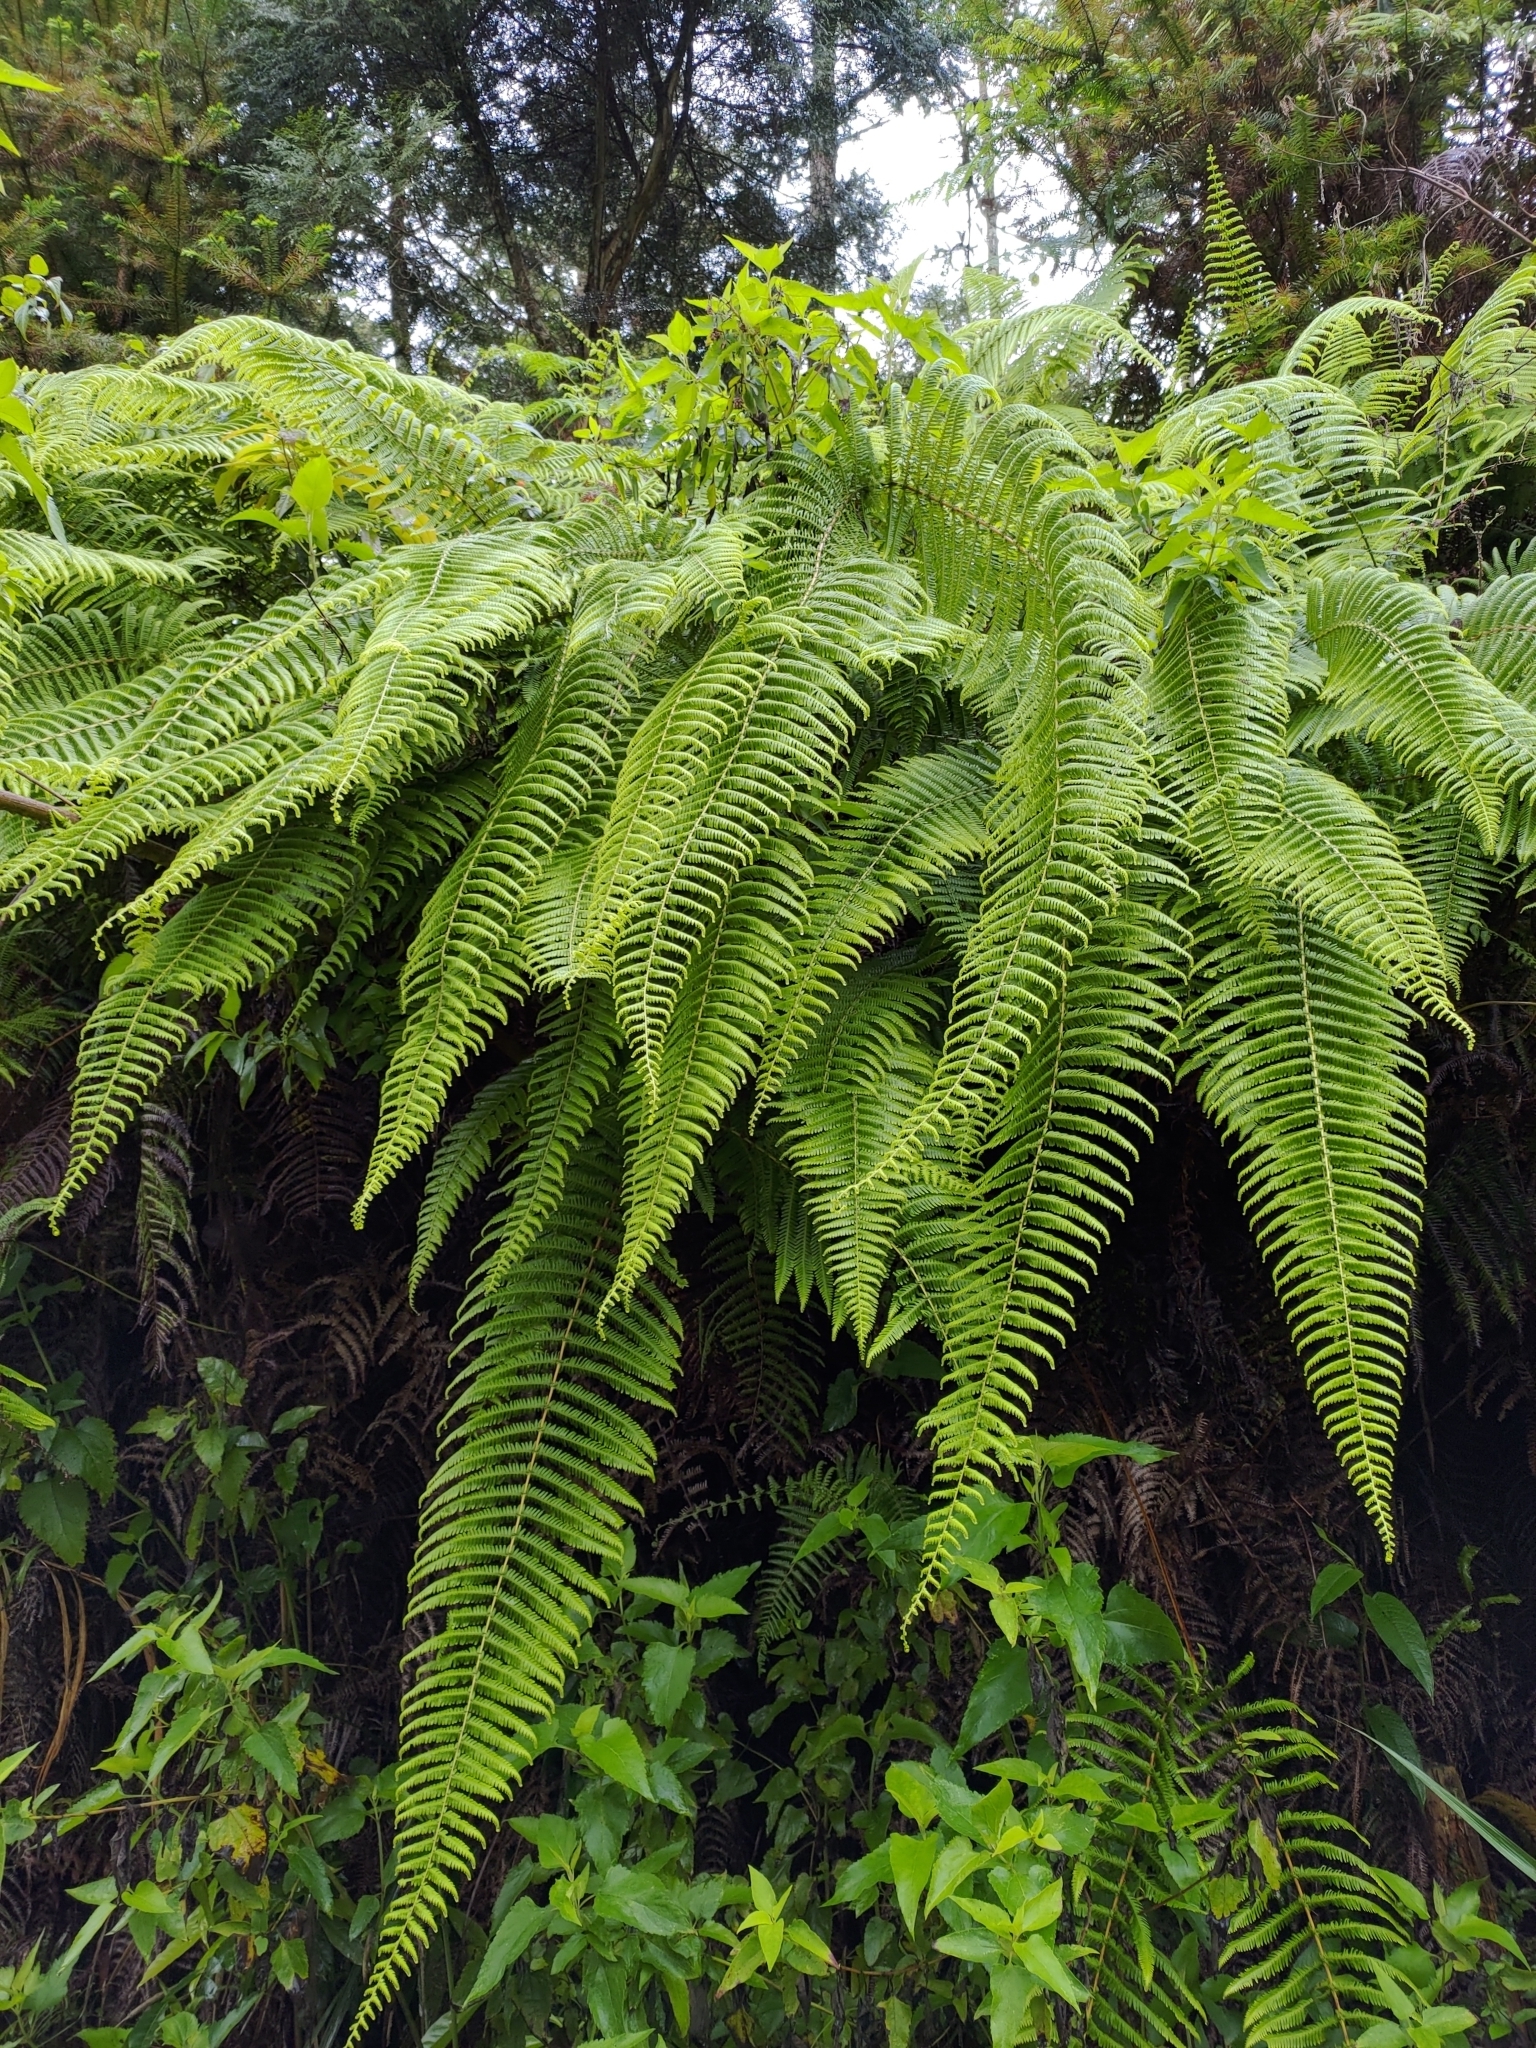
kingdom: Plantae
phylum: Tracheophyta
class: Polypodiopsida
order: Gleicheniales
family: Gleicheniaceae
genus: Diplopterygium
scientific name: Diplopterygium glaucum
